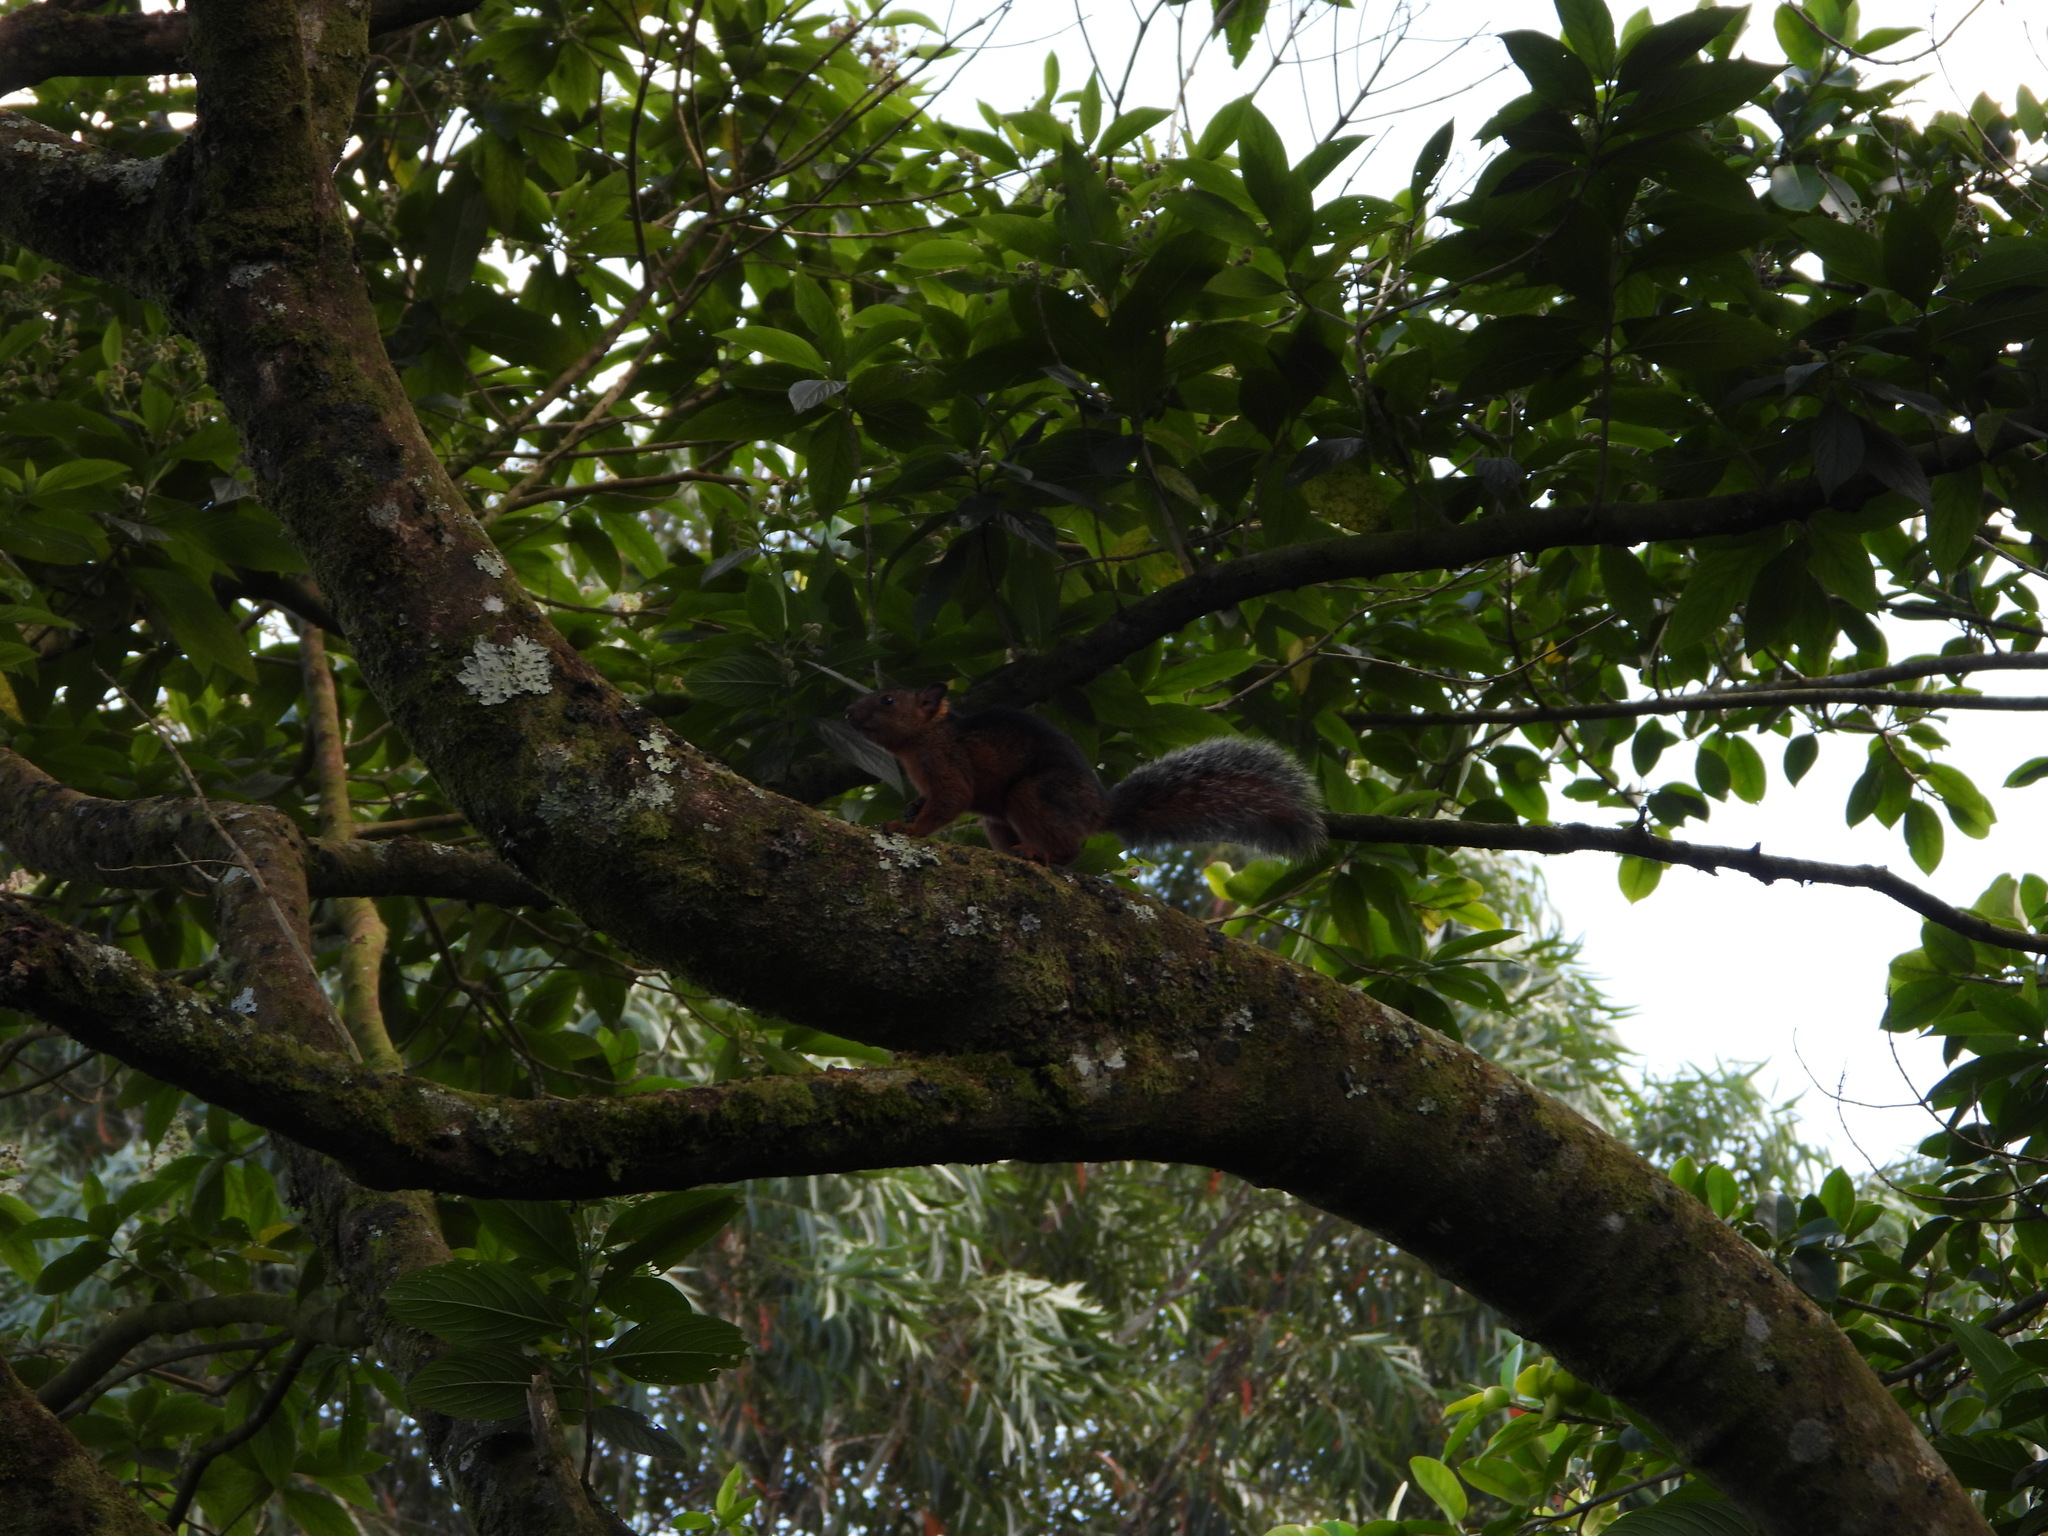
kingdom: Animalia
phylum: Chordata
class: Mammalia
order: Rodentia
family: Sciuridae
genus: Sciurus
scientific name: Sciurus variegatoides
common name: Variegated squirrel
